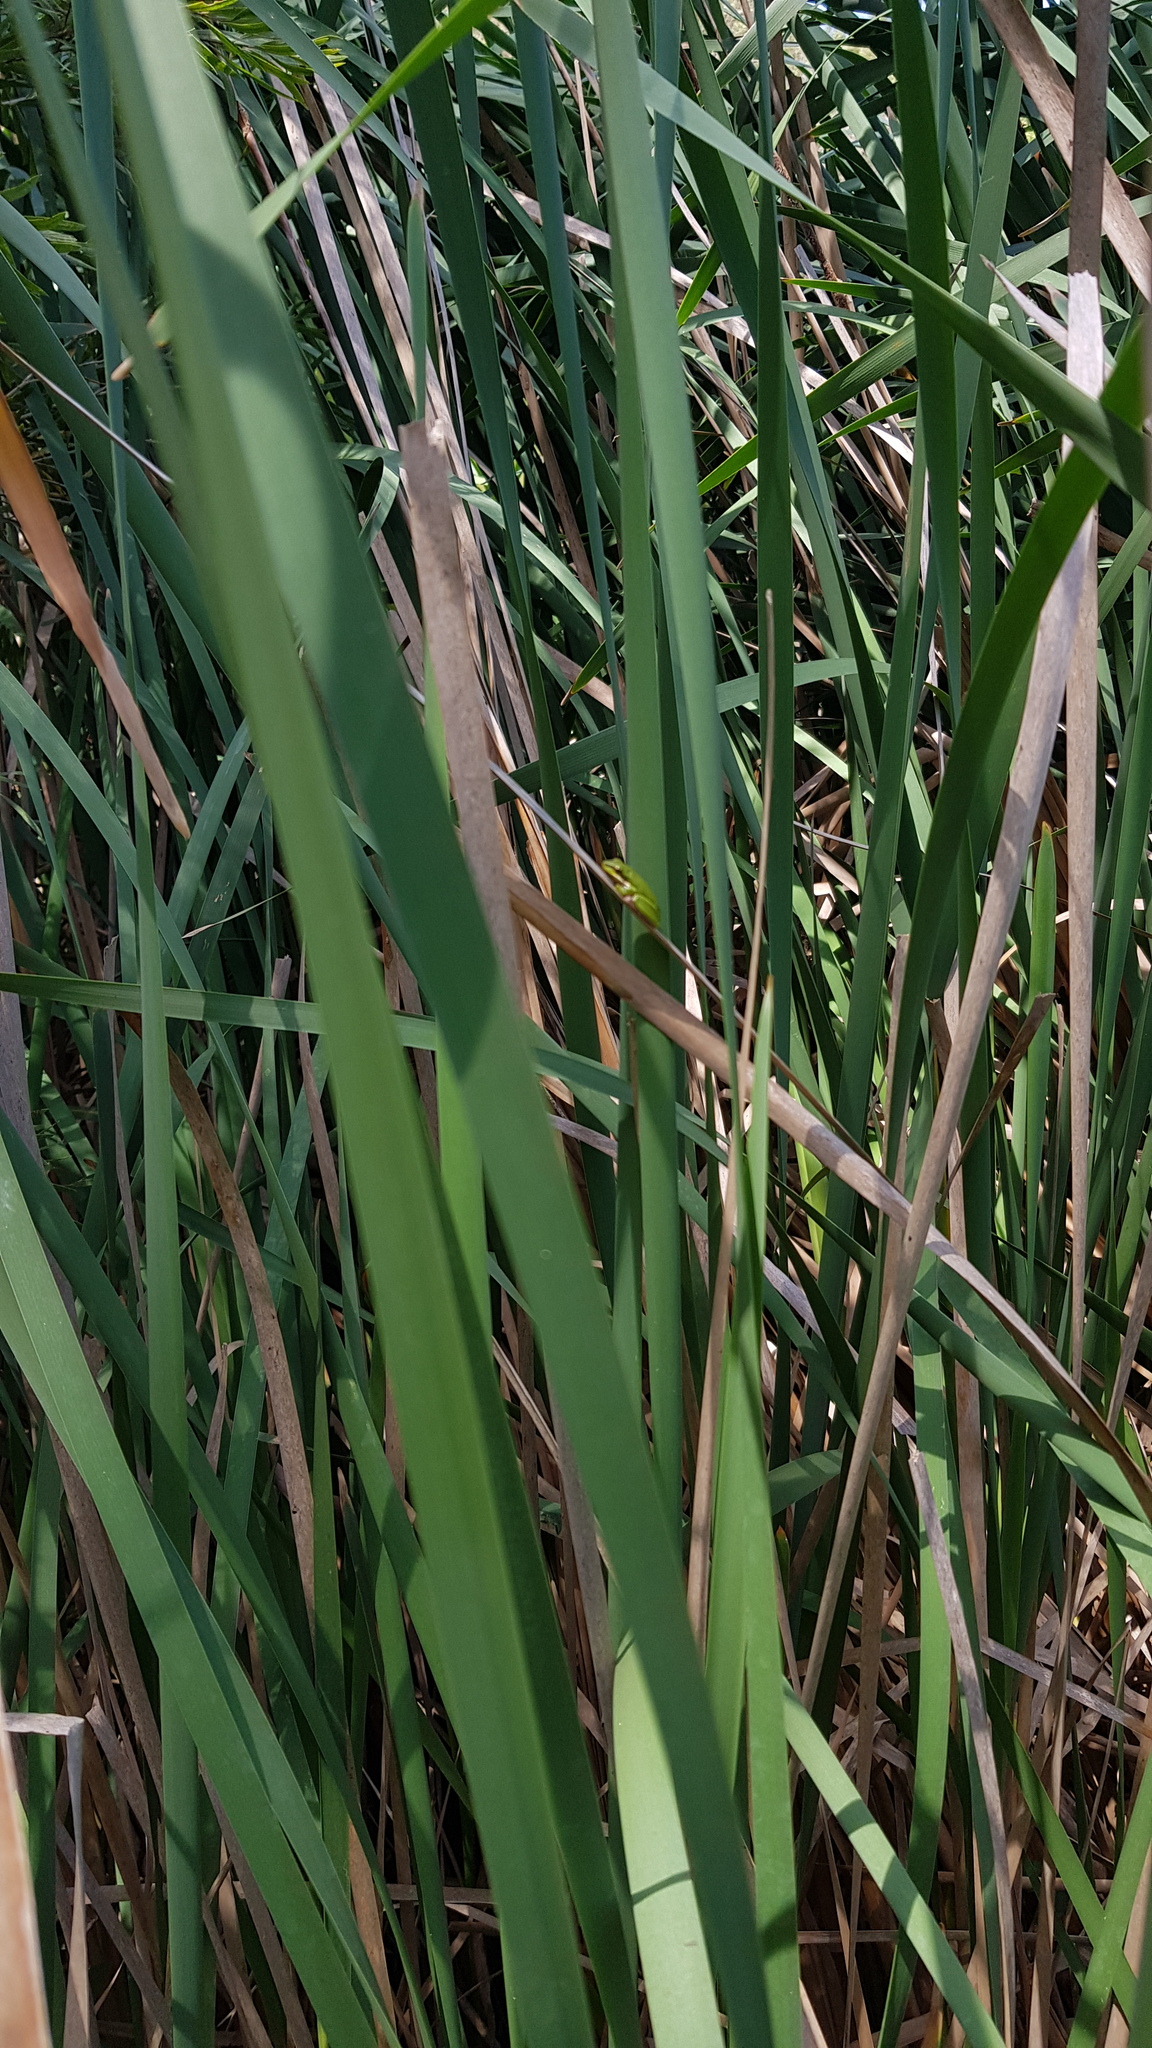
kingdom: Animalia
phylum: Chordata
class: Amphibia
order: Anura
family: Pelodryadidae
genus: Litoria
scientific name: Litoria fallax
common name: Eastern dwarf treefrog
